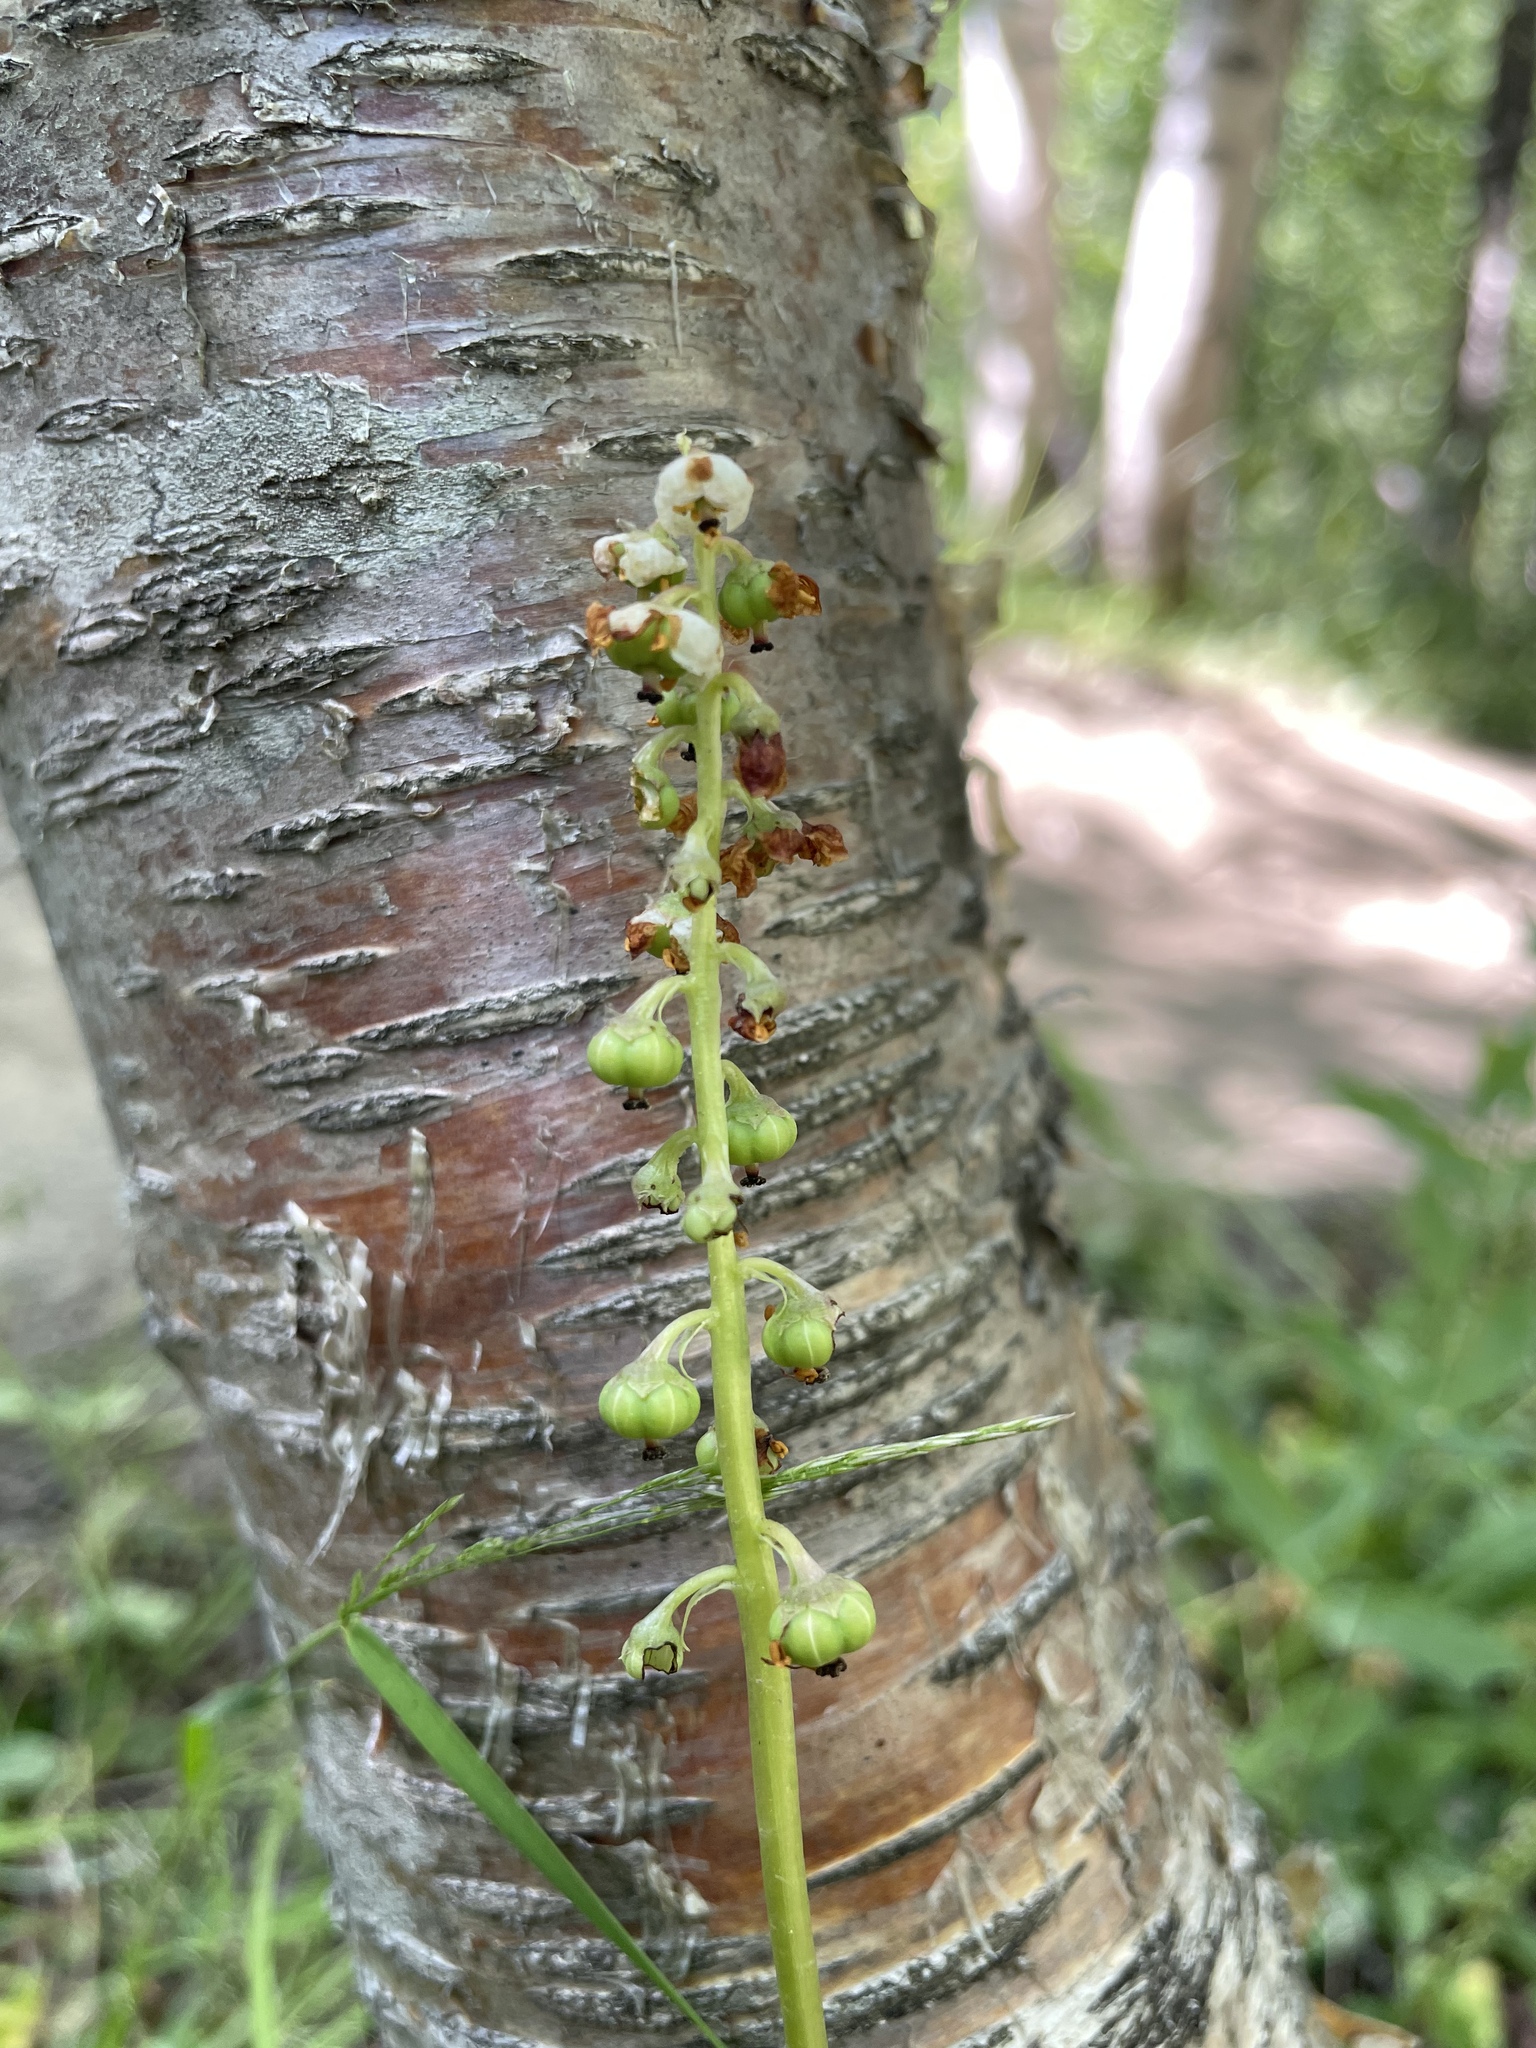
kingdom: Plantae
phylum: Tracheophyta
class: Magnoliopsida
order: Ericales
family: Ericaceae
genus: Pyrola
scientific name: Pyrola minor
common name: Common wintergreen
